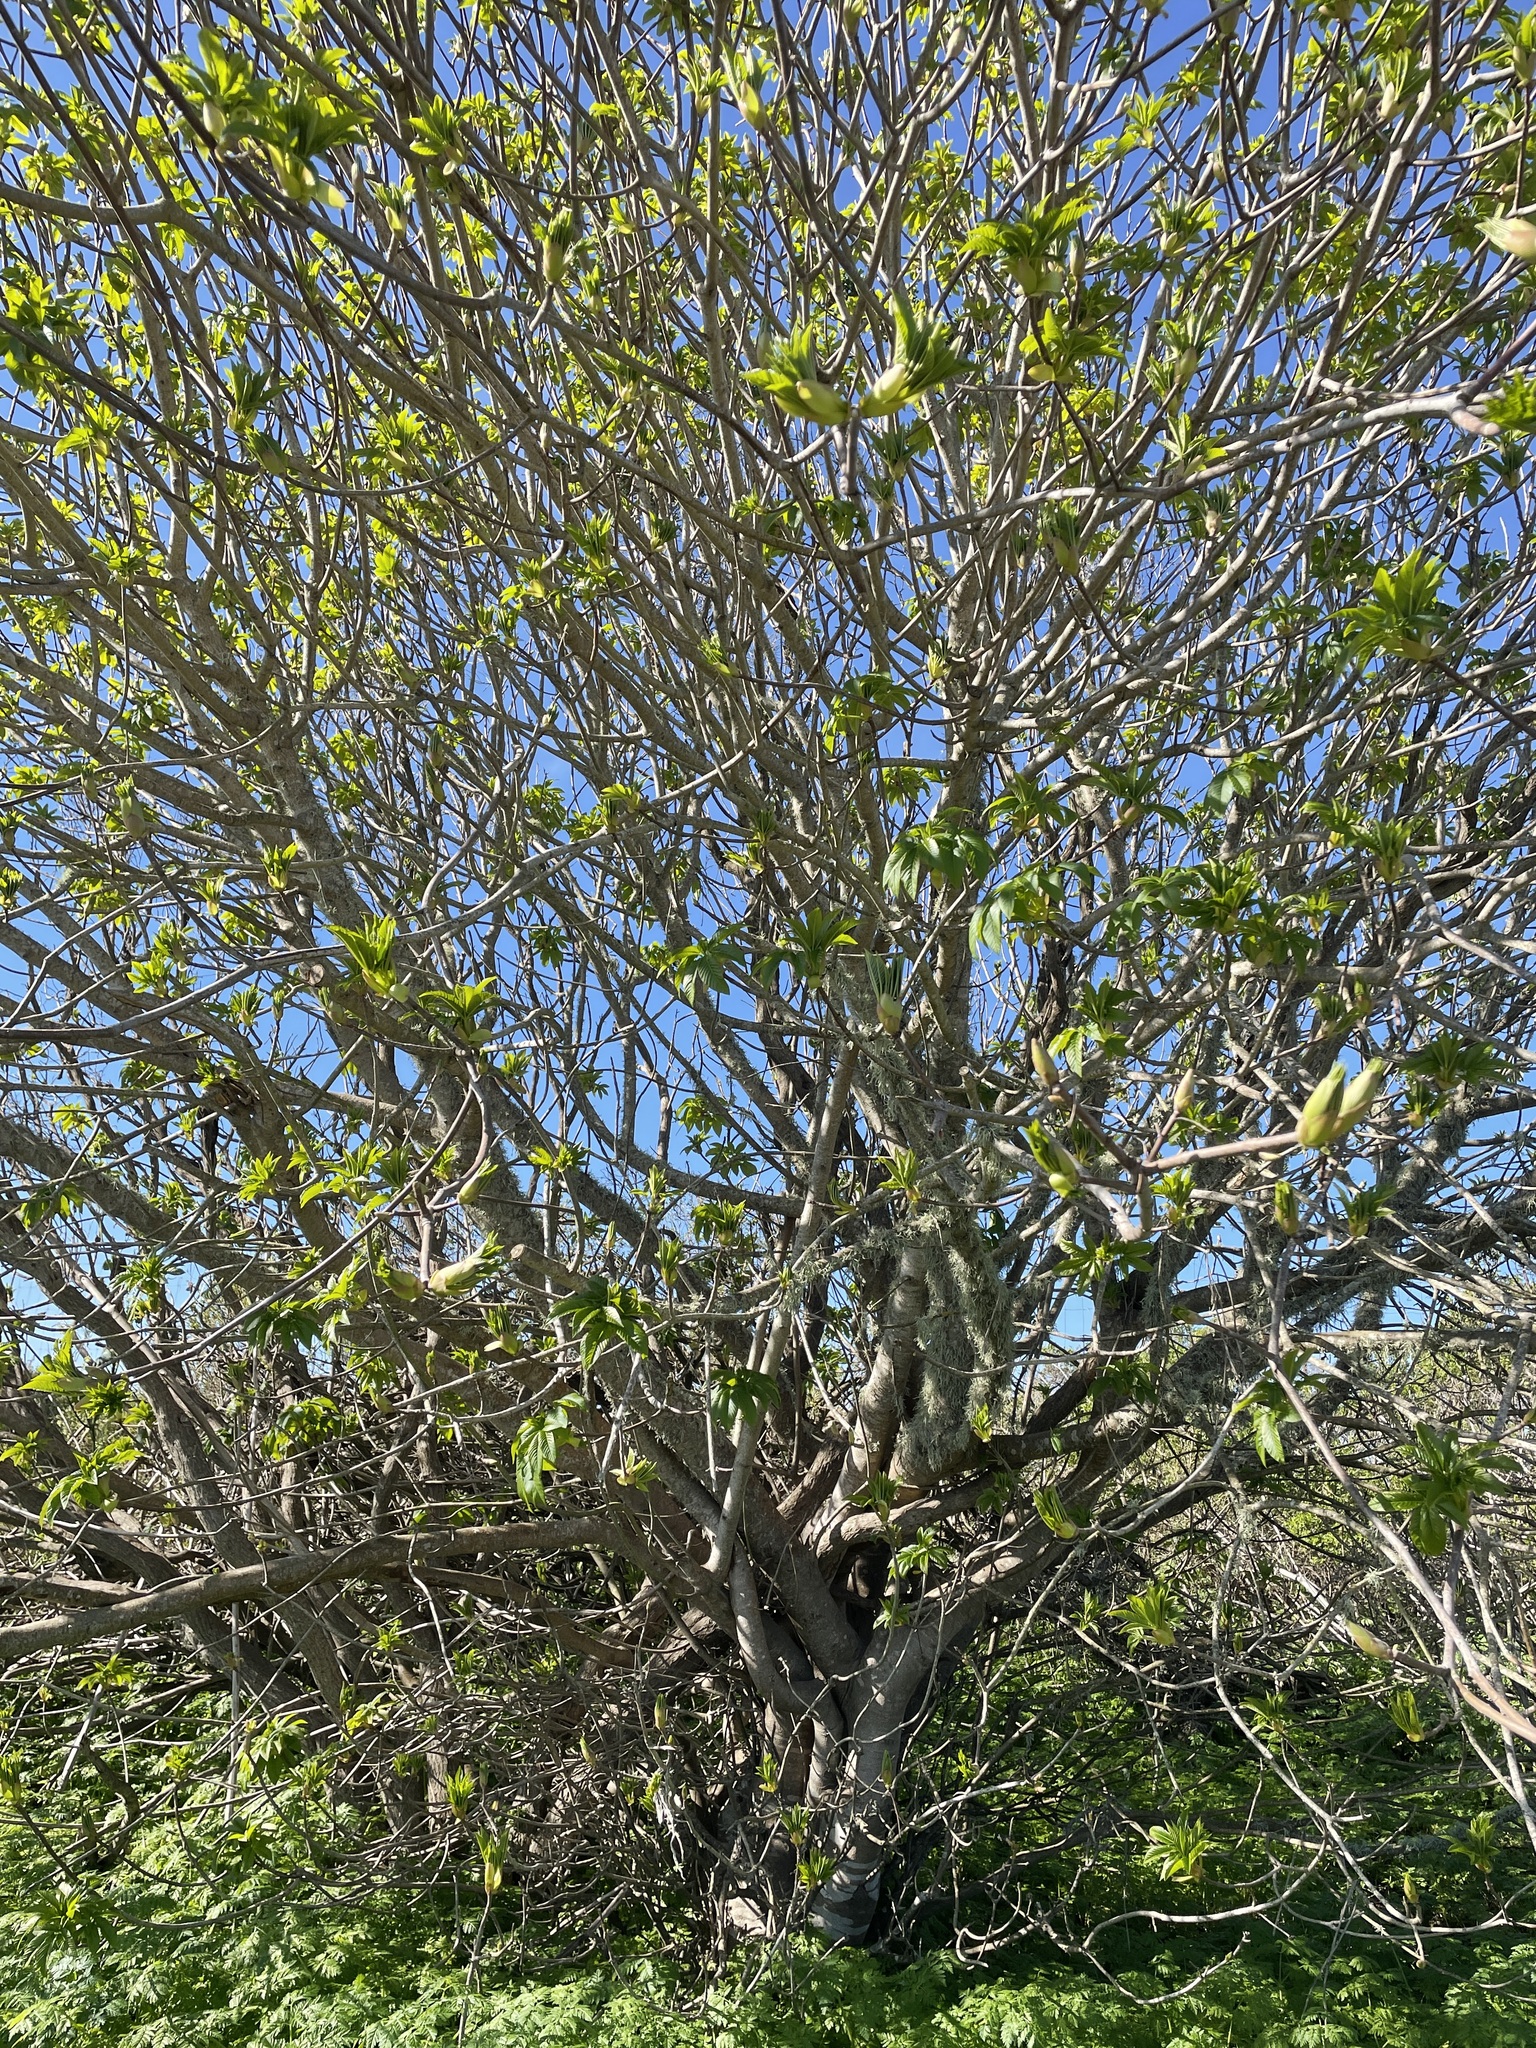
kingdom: Plantae
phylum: Tracheophyta
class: Magnoliopsida
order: Sapindales
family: Sapindaceae
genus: Aesculus
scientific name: Aesculus californica
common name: California buckeye
